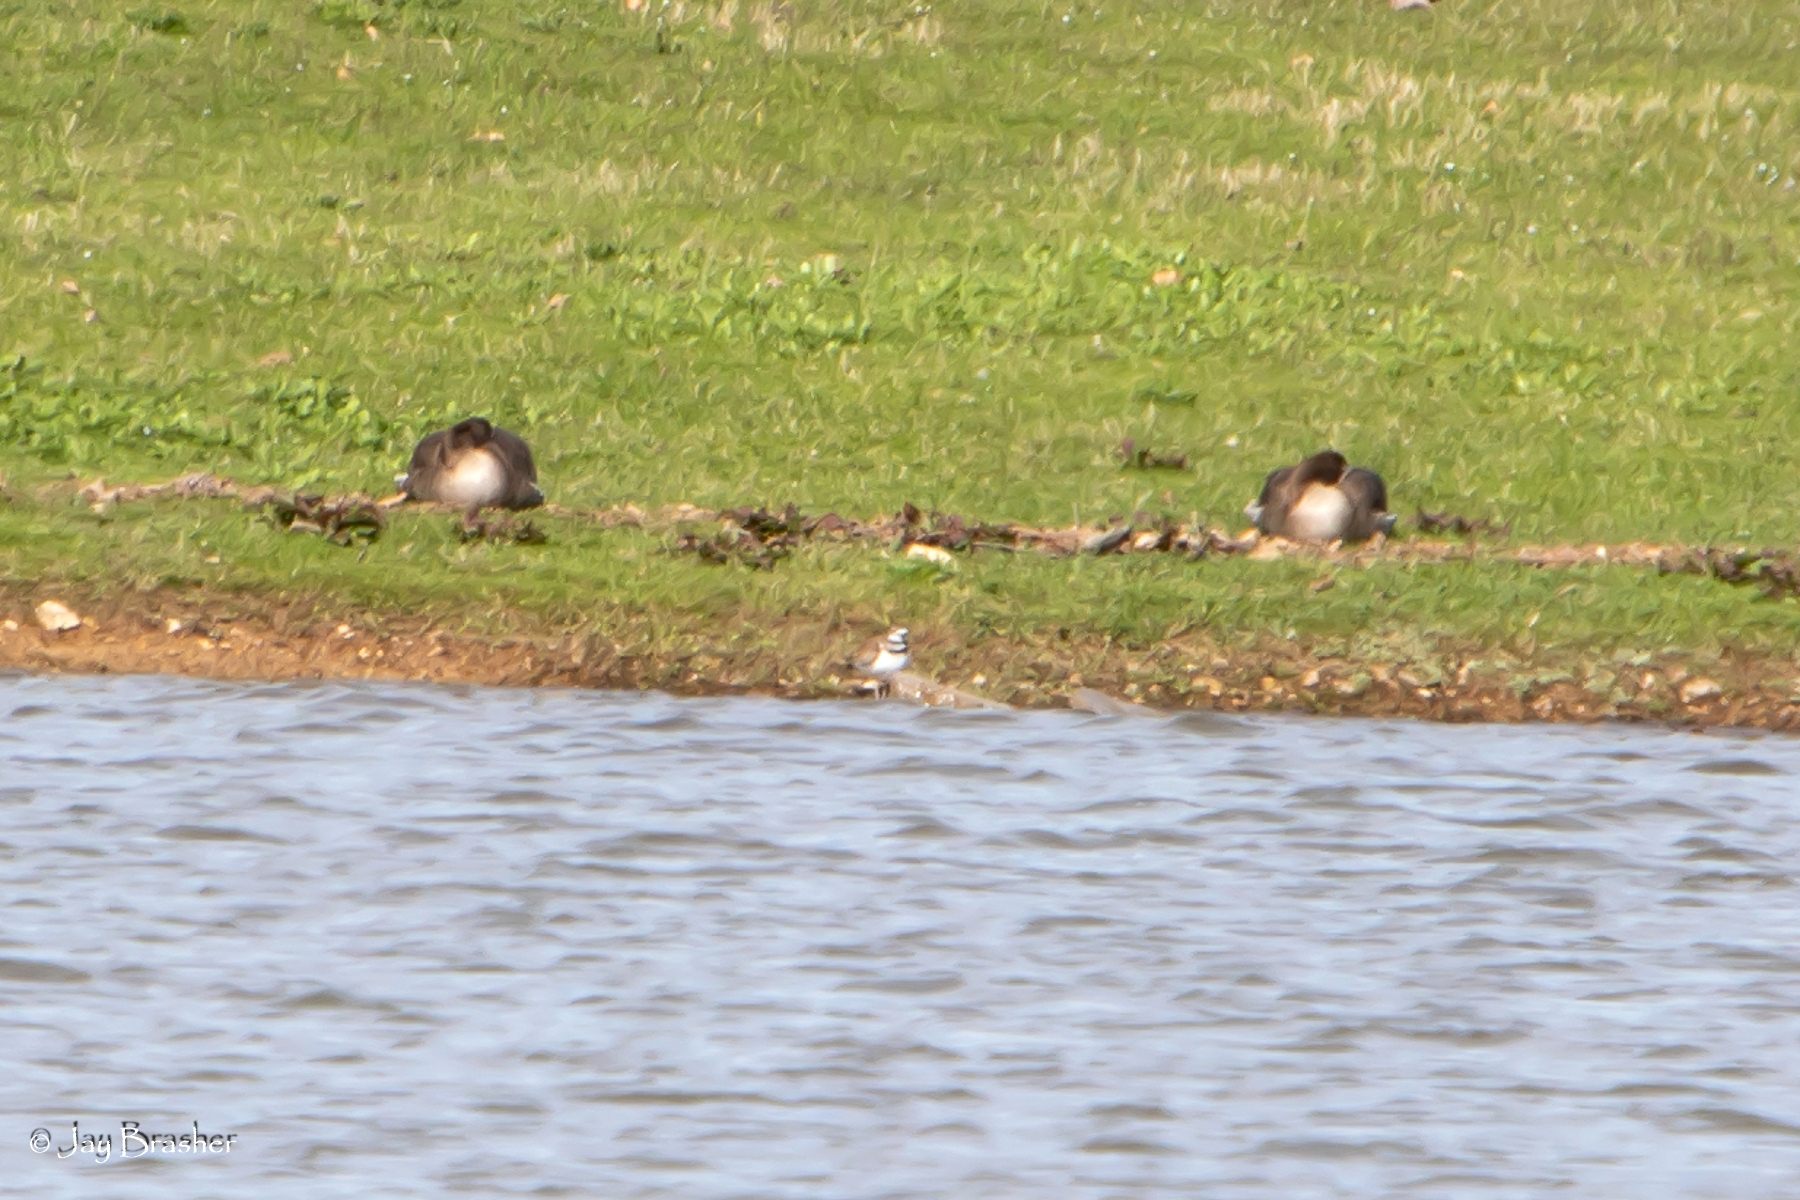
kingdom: Animalia
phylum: Chordata
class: Aves
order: Charadriiformes
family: Charadriidae
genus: Charadrius
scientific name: Charadrius vociferus
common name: Killdeer
